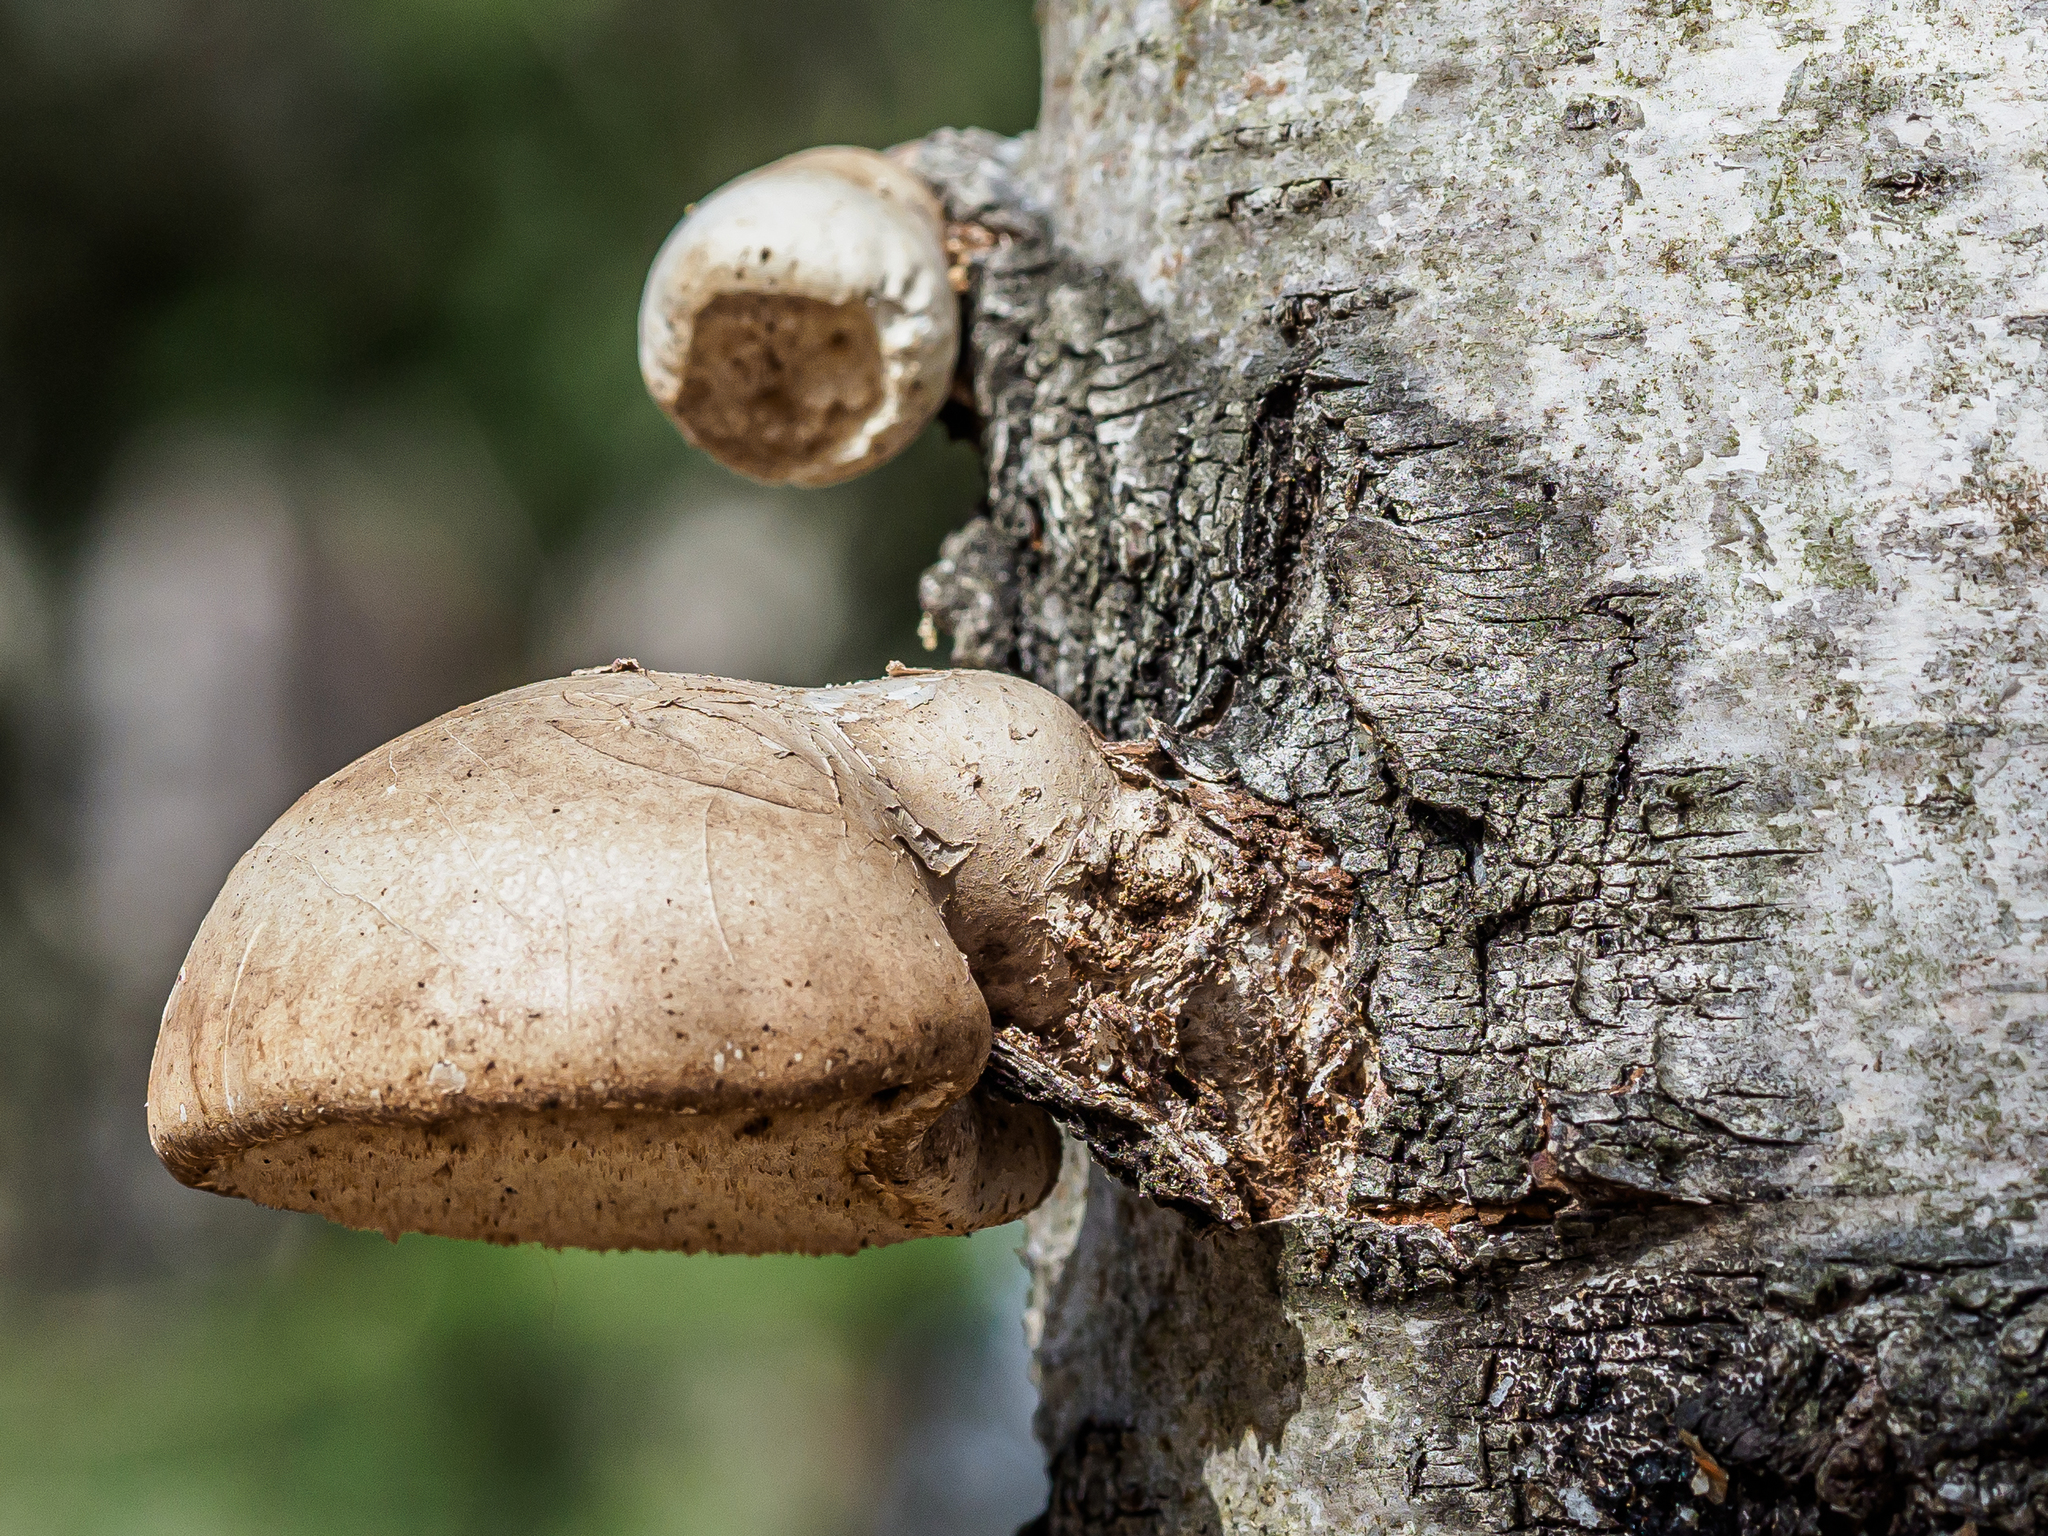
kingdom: Fungi
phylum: Basidiomycota
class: Agaricomycetes
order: Polyporales
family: Fomitopsidaceae
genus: Fomitopsis
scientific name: Fomitopsis betulina
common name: Birch polypore
